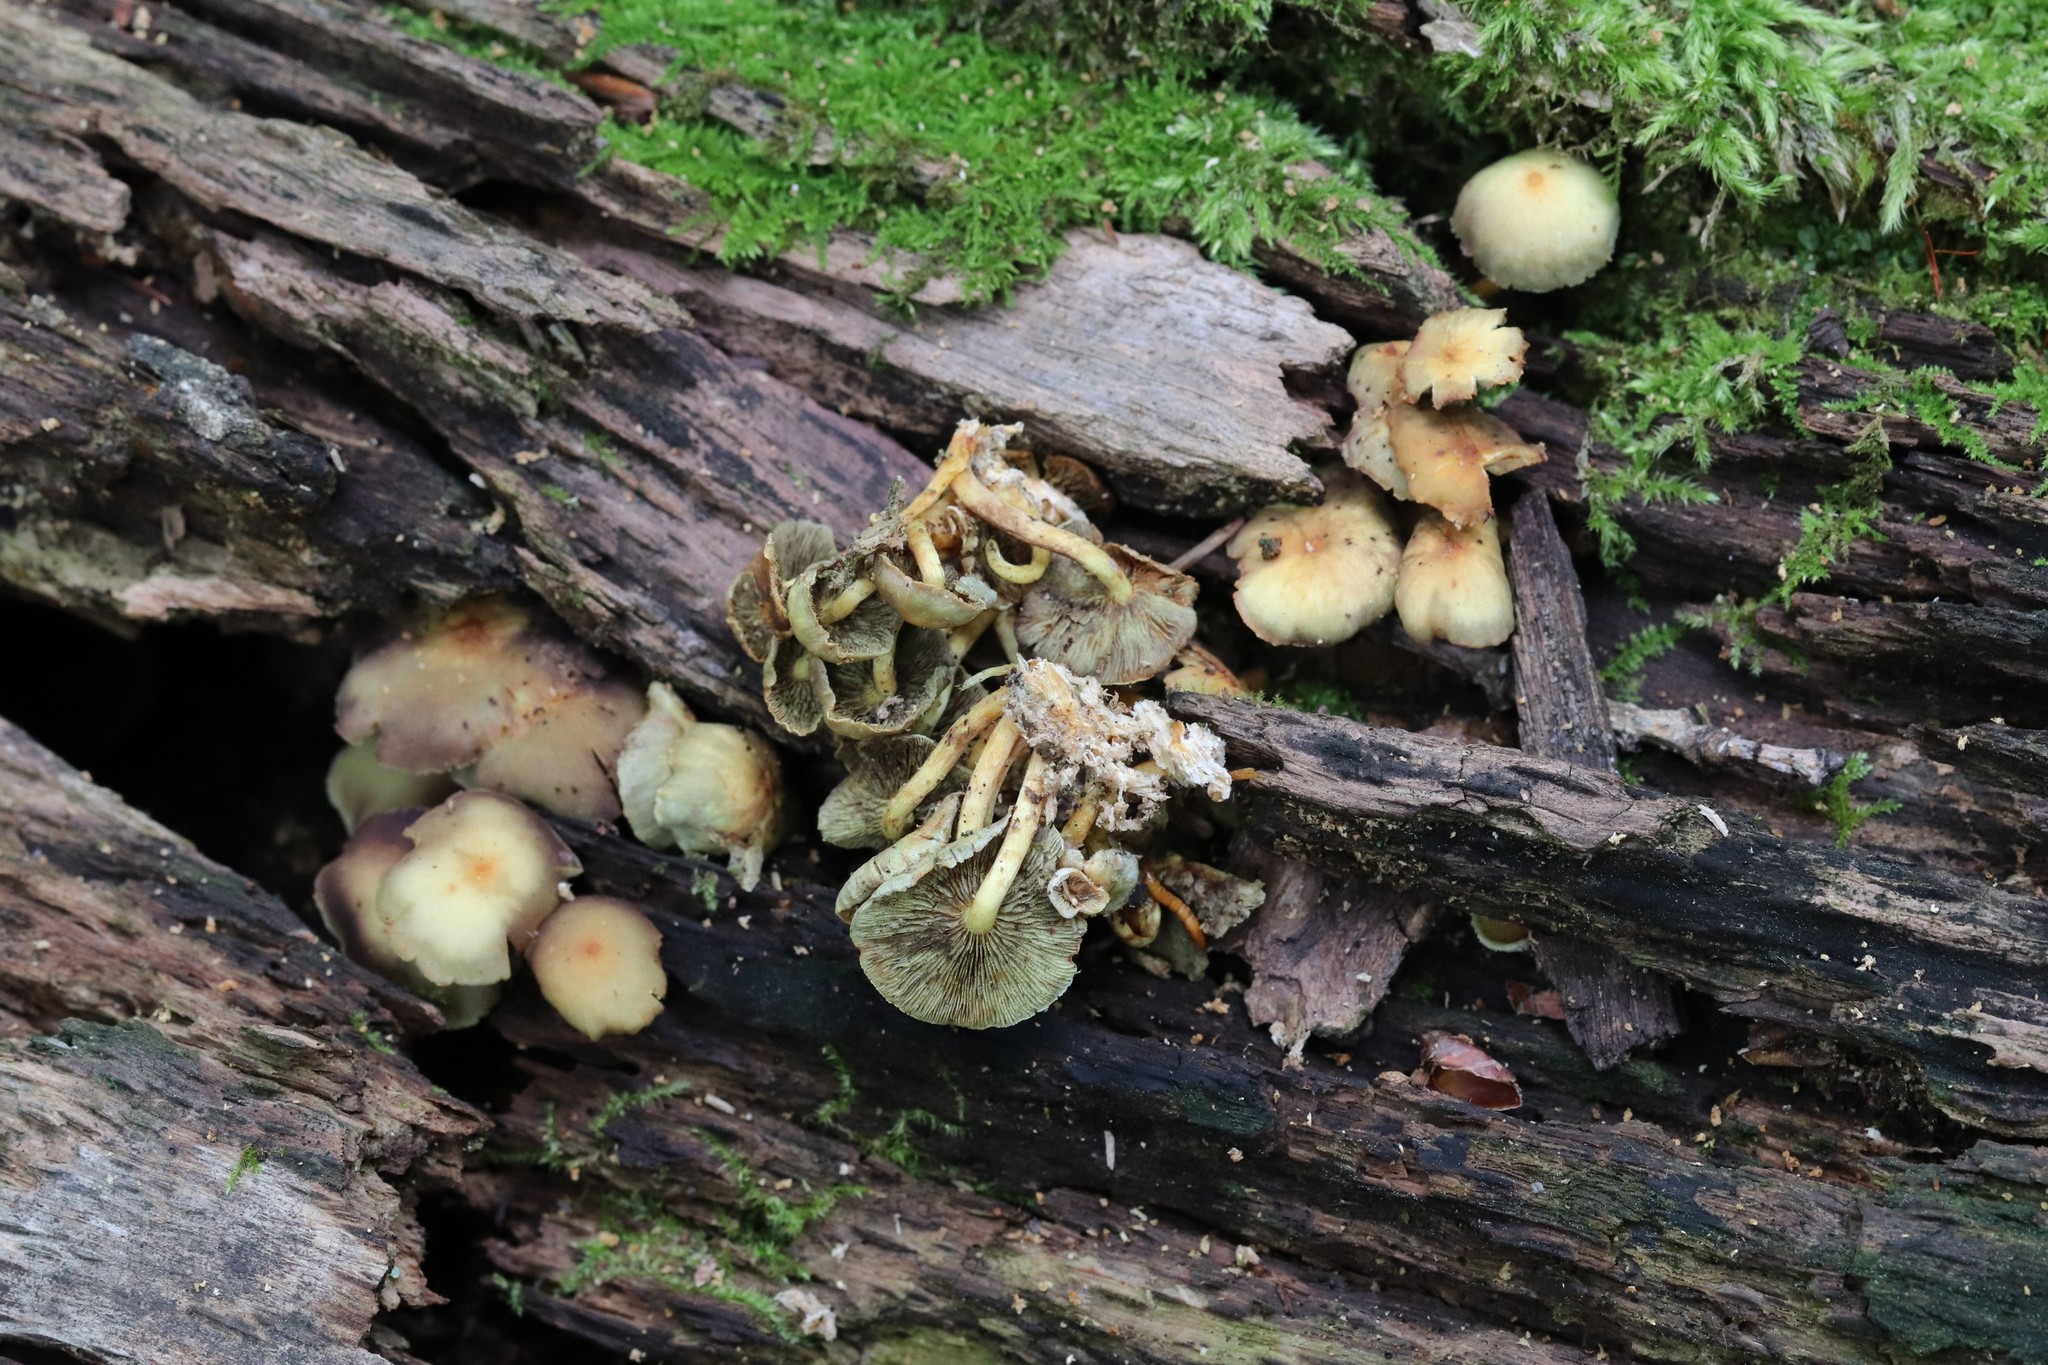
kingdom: Fungi
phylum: Basidiomycota
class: Agaricomycetes
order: Agaricales
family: Strophariaceae
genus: Hypholoma
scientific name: Hypholoma fasciculare
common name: Sulphur tuft
